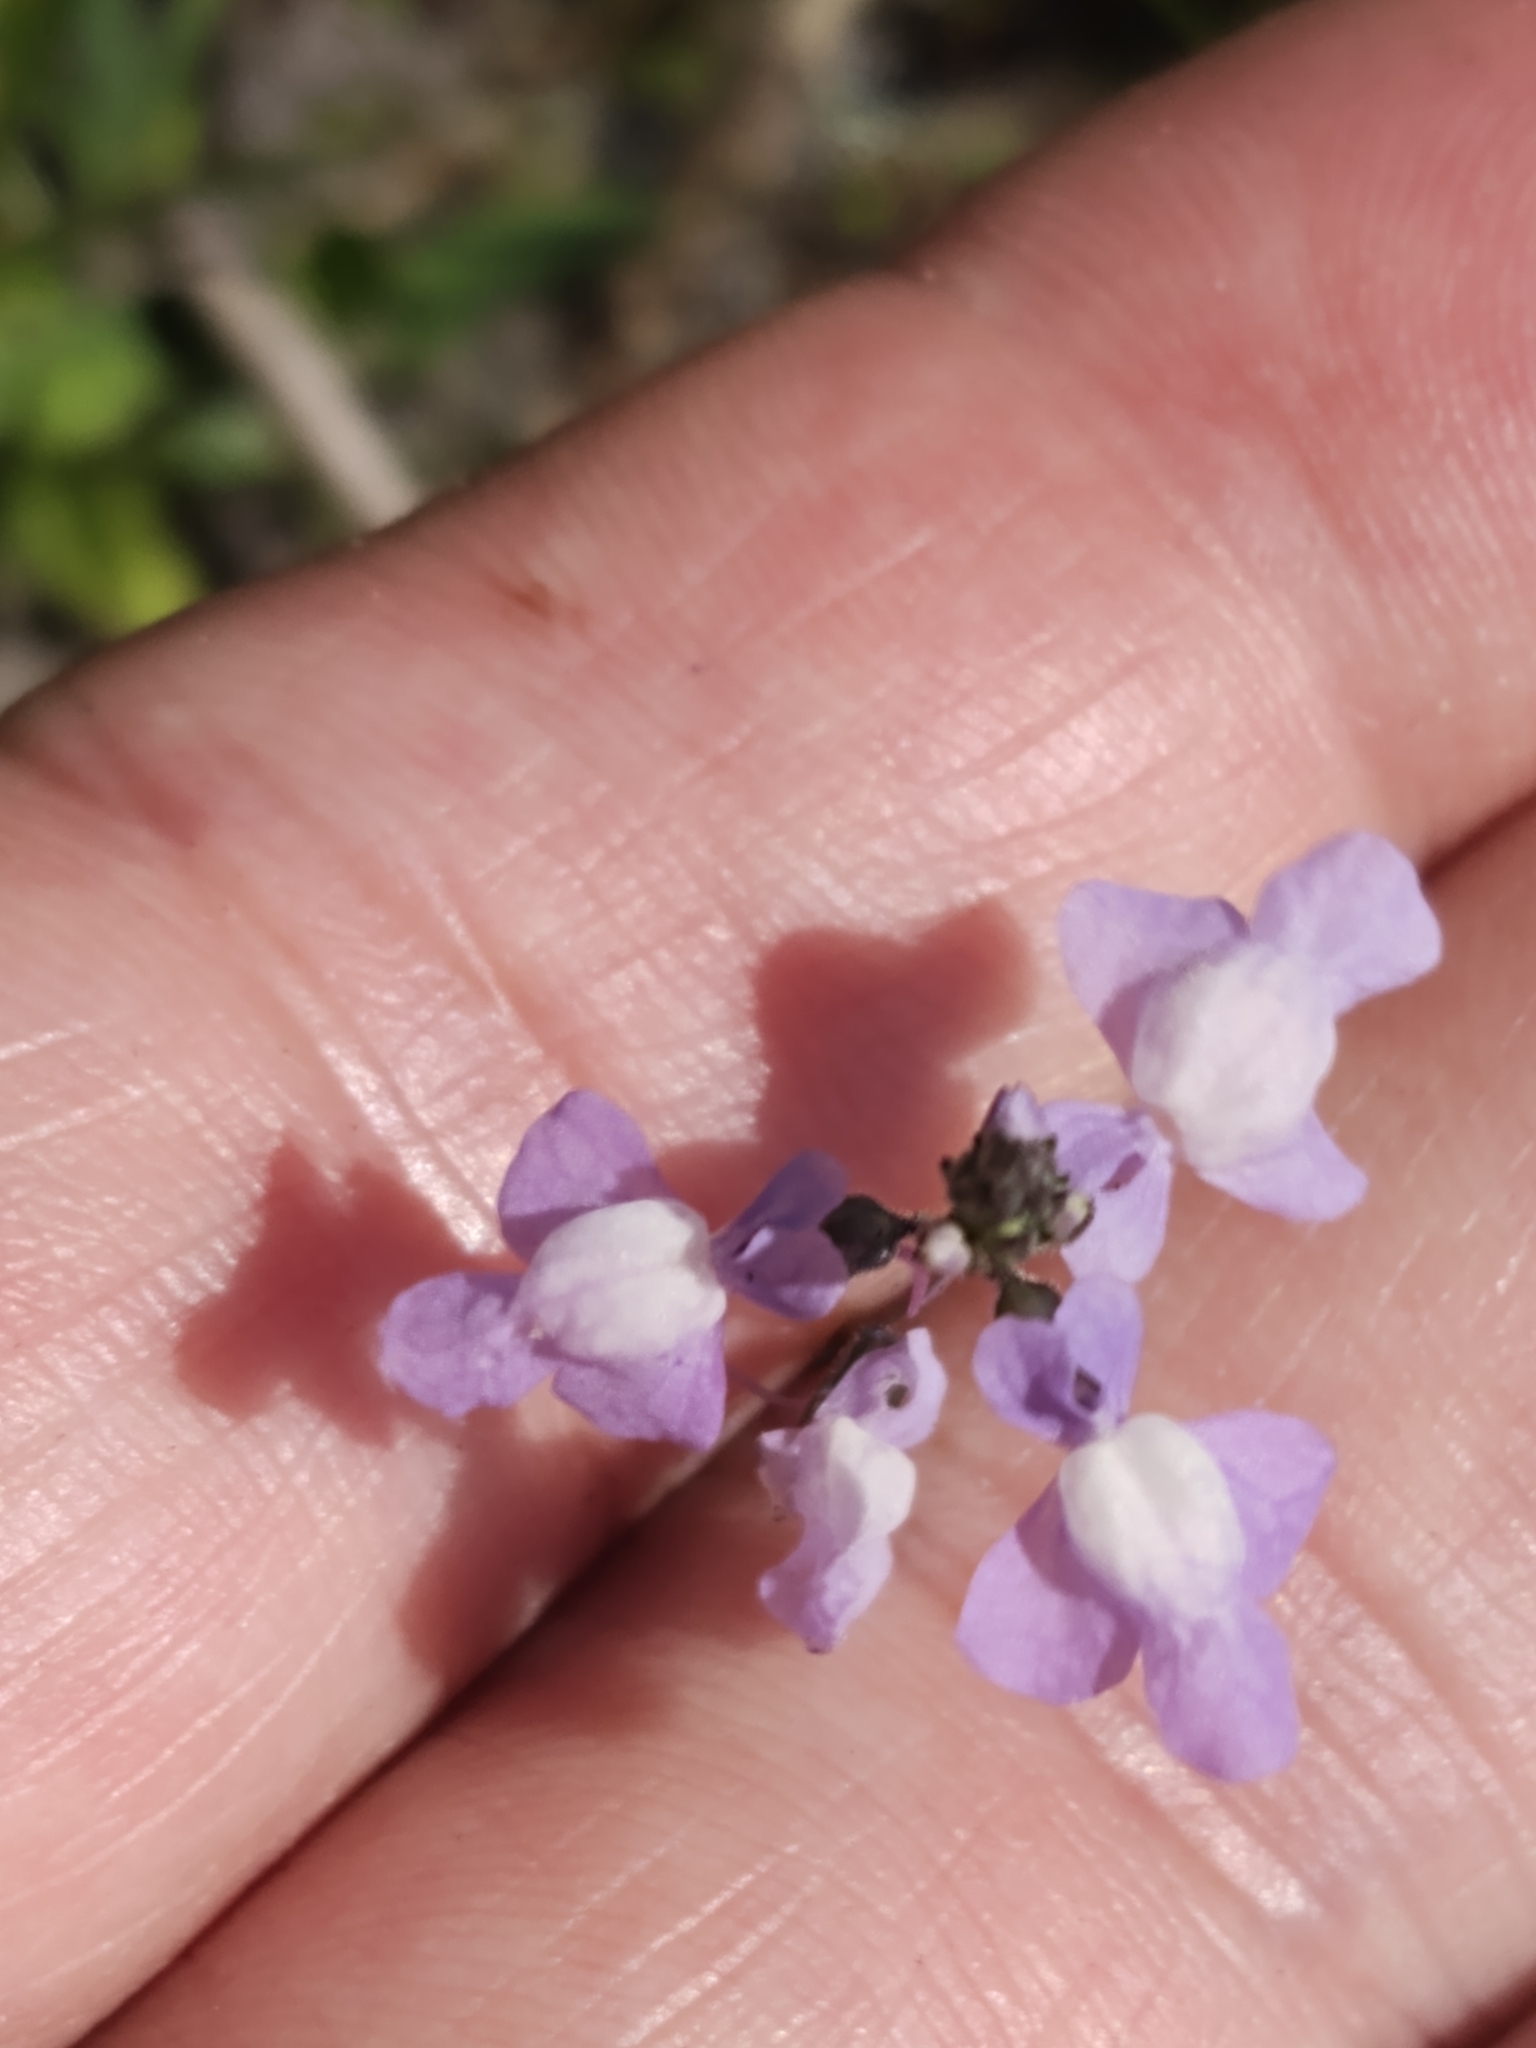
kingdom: Plantae
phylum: Tracheophyta
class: Magnoliopsida
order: Lamiales
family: Plantaginaceae
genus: Nuttallanthus
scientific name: Nuttallanthus canadensis
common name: Blue toadflax
